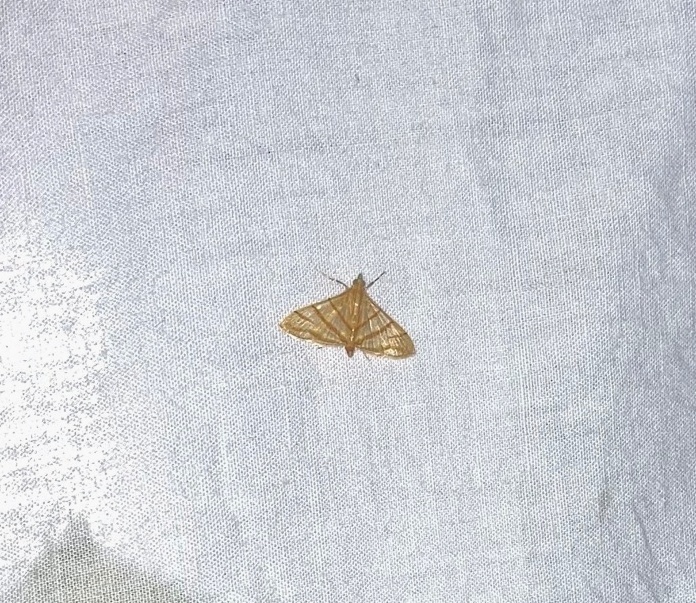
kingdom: Animalia
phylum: Arthropoda
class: Insecta
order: Lepidoptera
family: Crambidae
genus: Pagyda
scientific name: Pagyda salvalis
